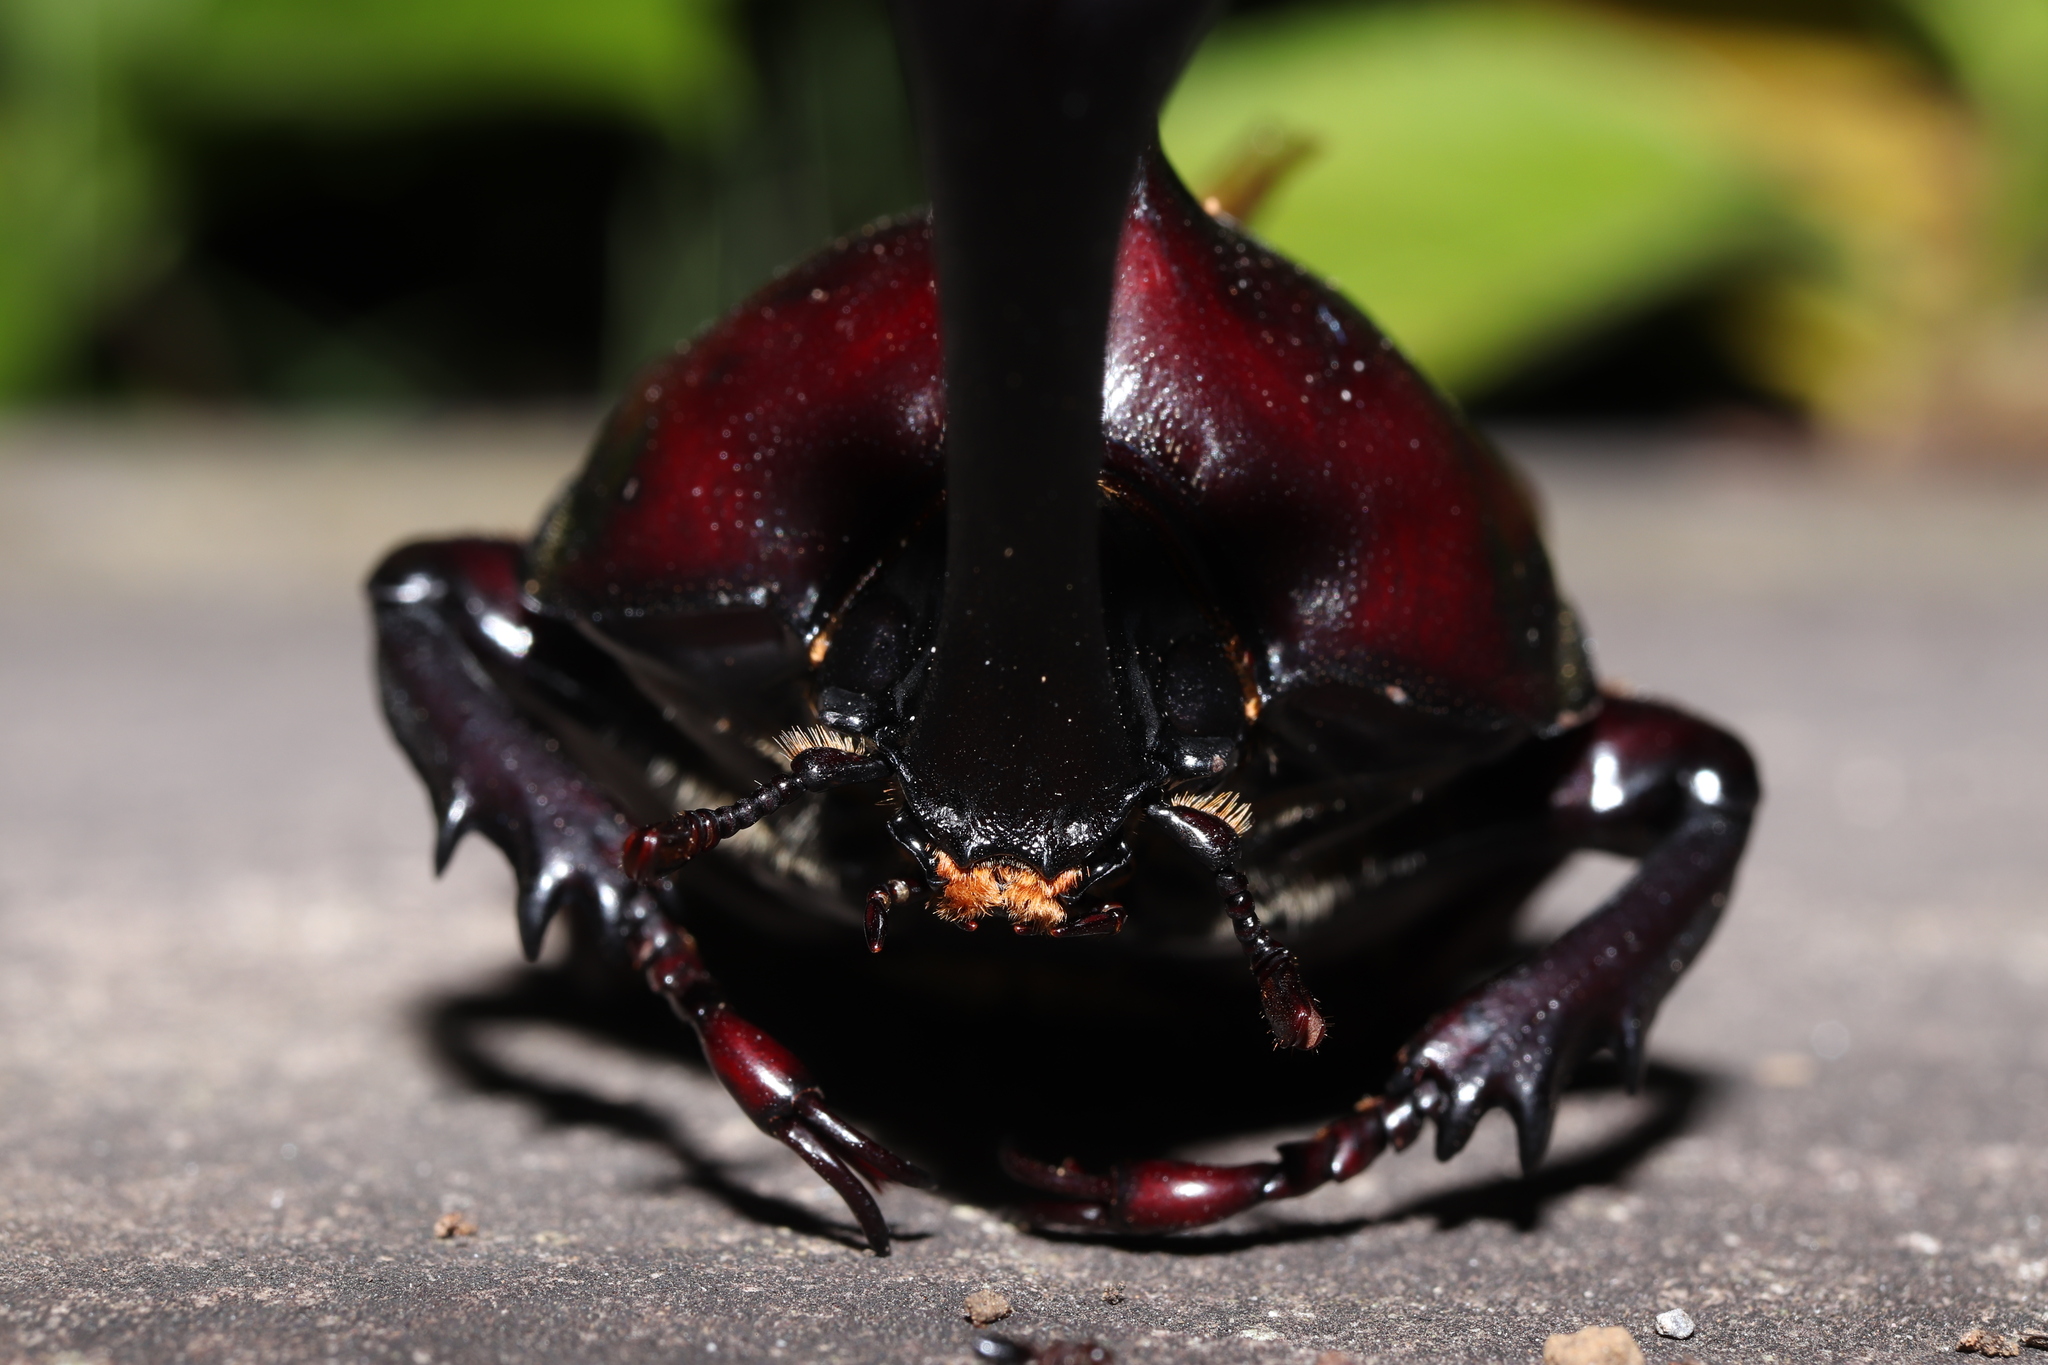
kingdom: Animalia
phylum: Arthropoda
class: Insecta
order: Coleoptera
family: Scarabaeidae
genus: Trypoxylus
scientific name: Trypoxylus dichotomus
